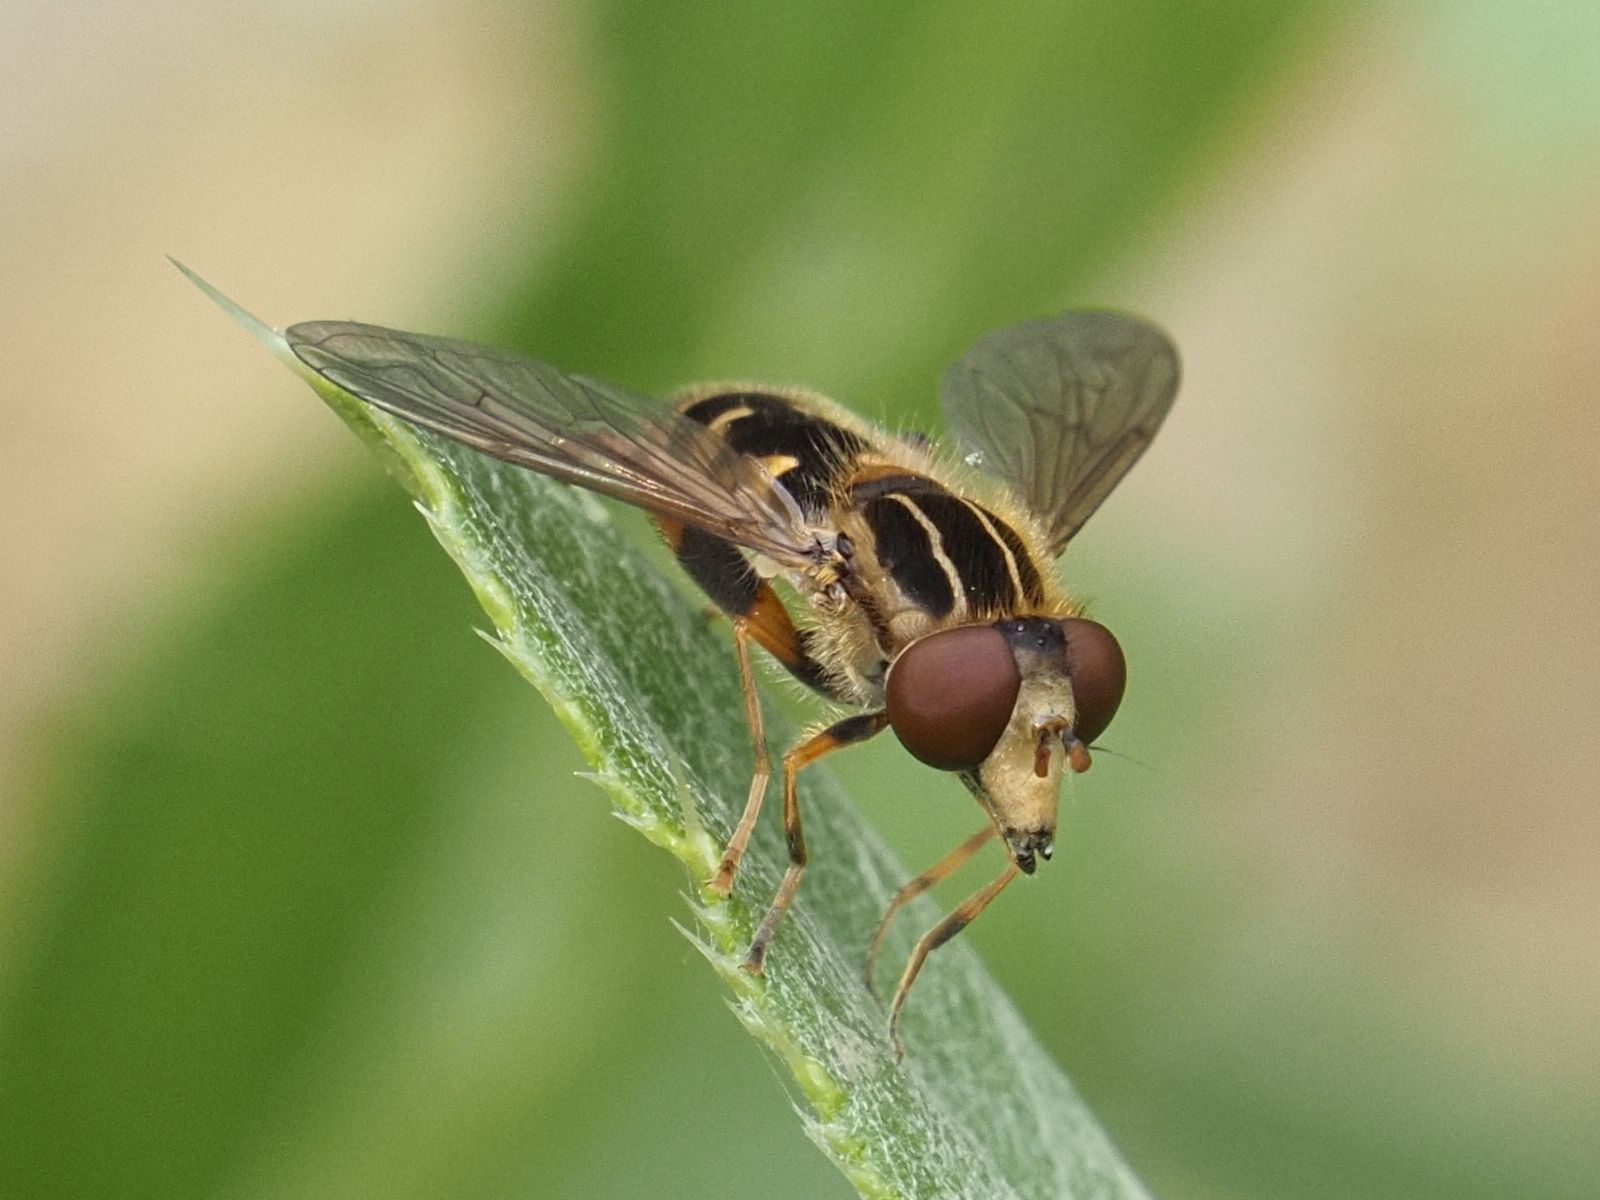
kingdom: Animalia
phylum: Arthropoda
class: Insecta
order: Diptera
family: Syrphidae
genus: Eurimyia
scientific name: Eurimyia lineatus
